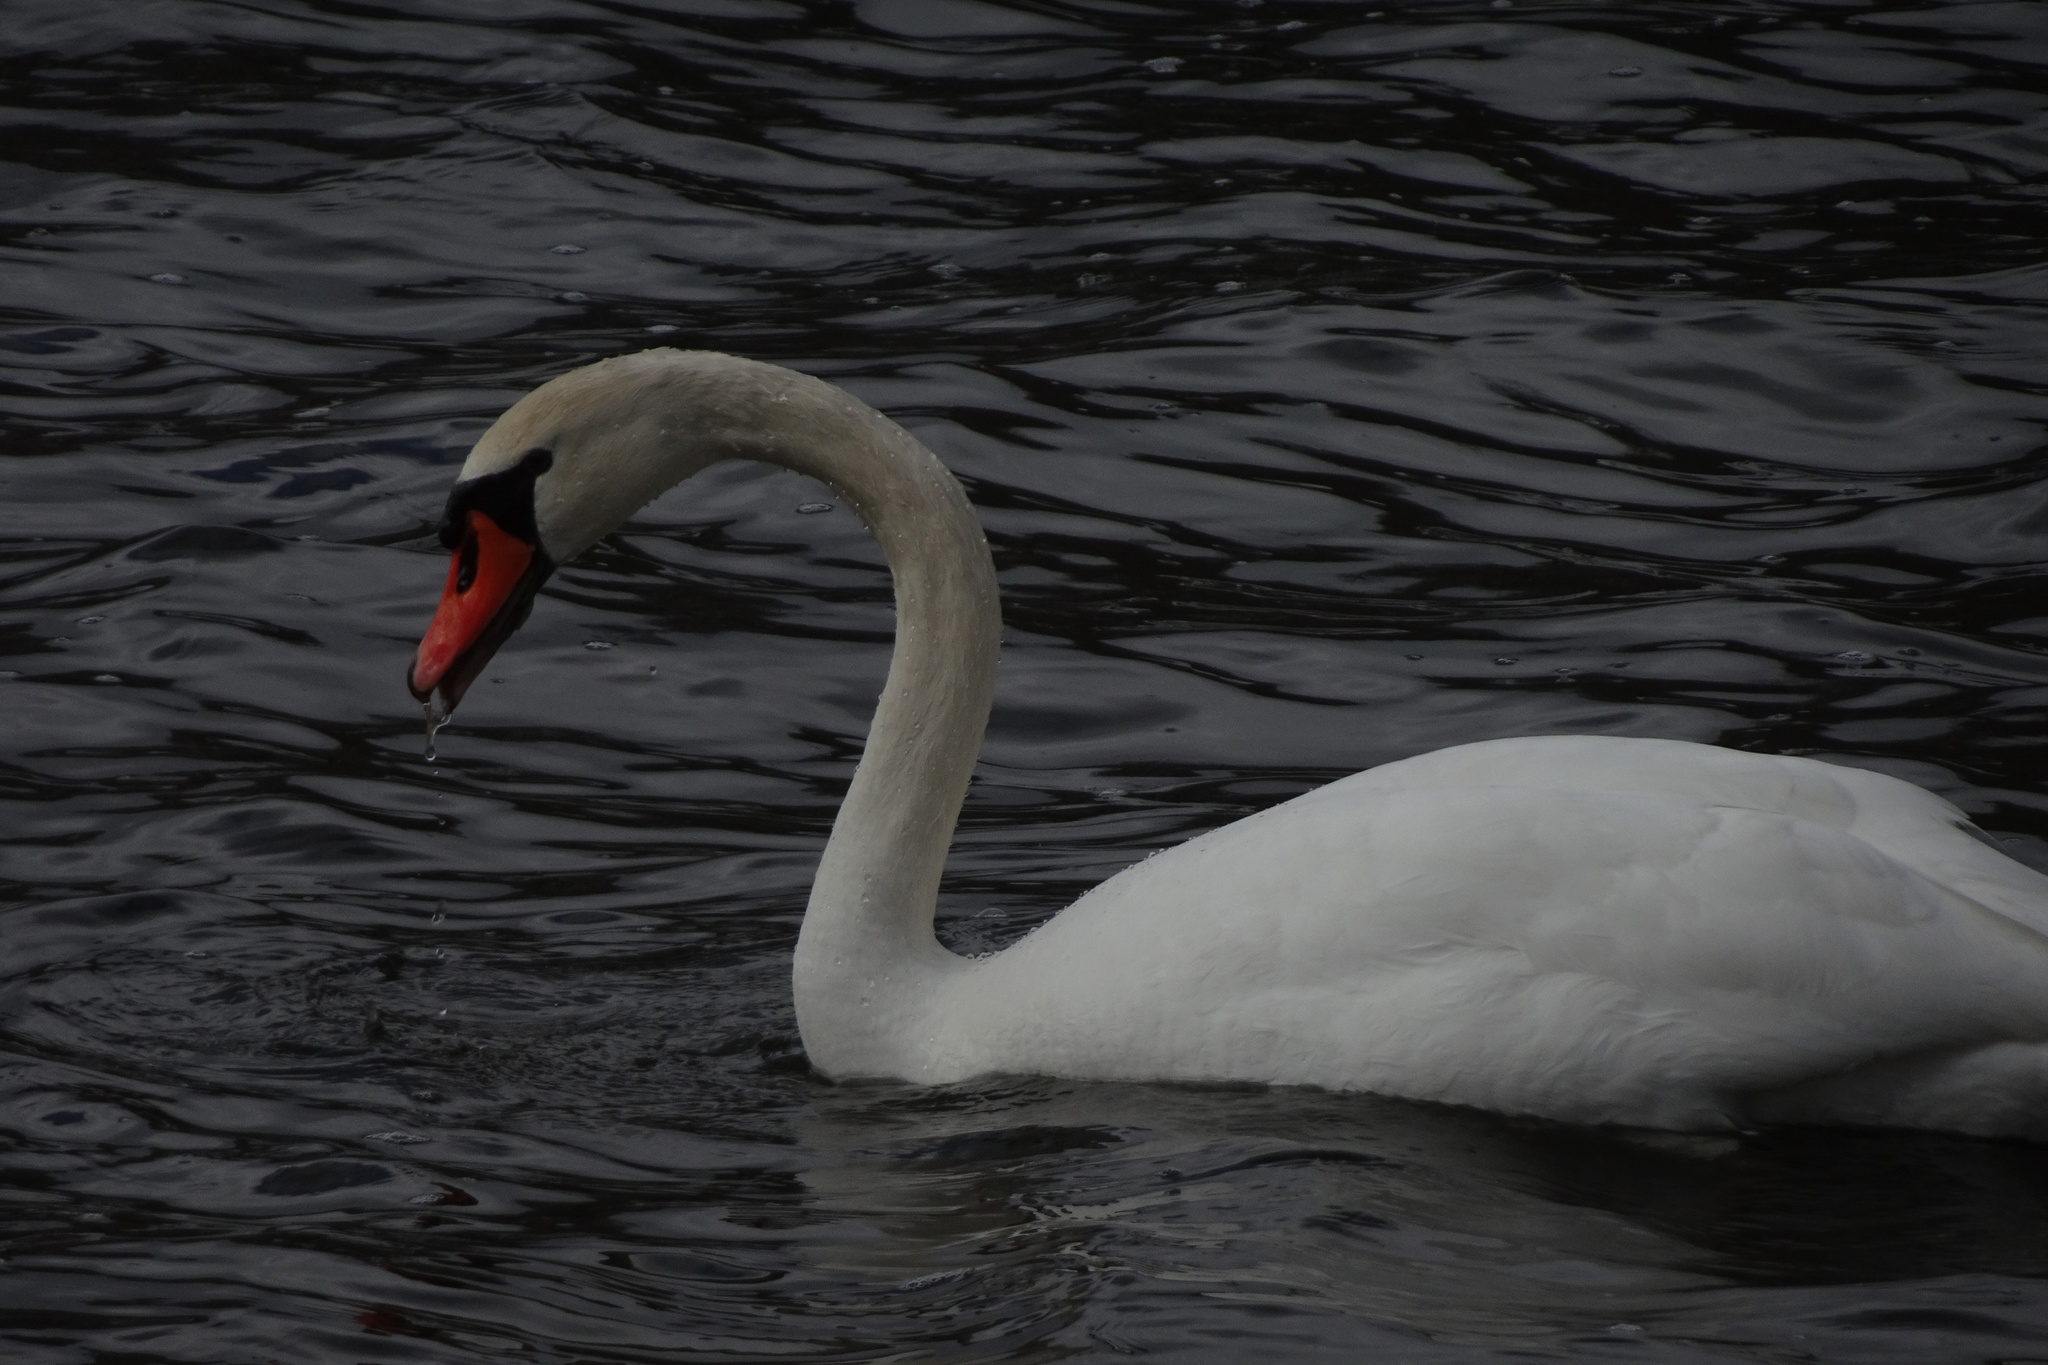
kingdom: Animalia
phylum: Chordata
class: Aves
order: Anseriformes
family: Anatidae
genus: Cygnus
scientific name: Cygnus olor
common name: Mute swan
